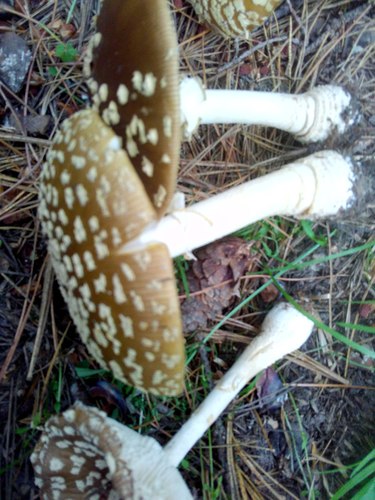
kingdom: Fungi
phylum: Basidiomycota
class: Agaricomycetes
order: Agaricales
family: Amanitaceae
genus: Amanita
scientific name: Amanita regalis
